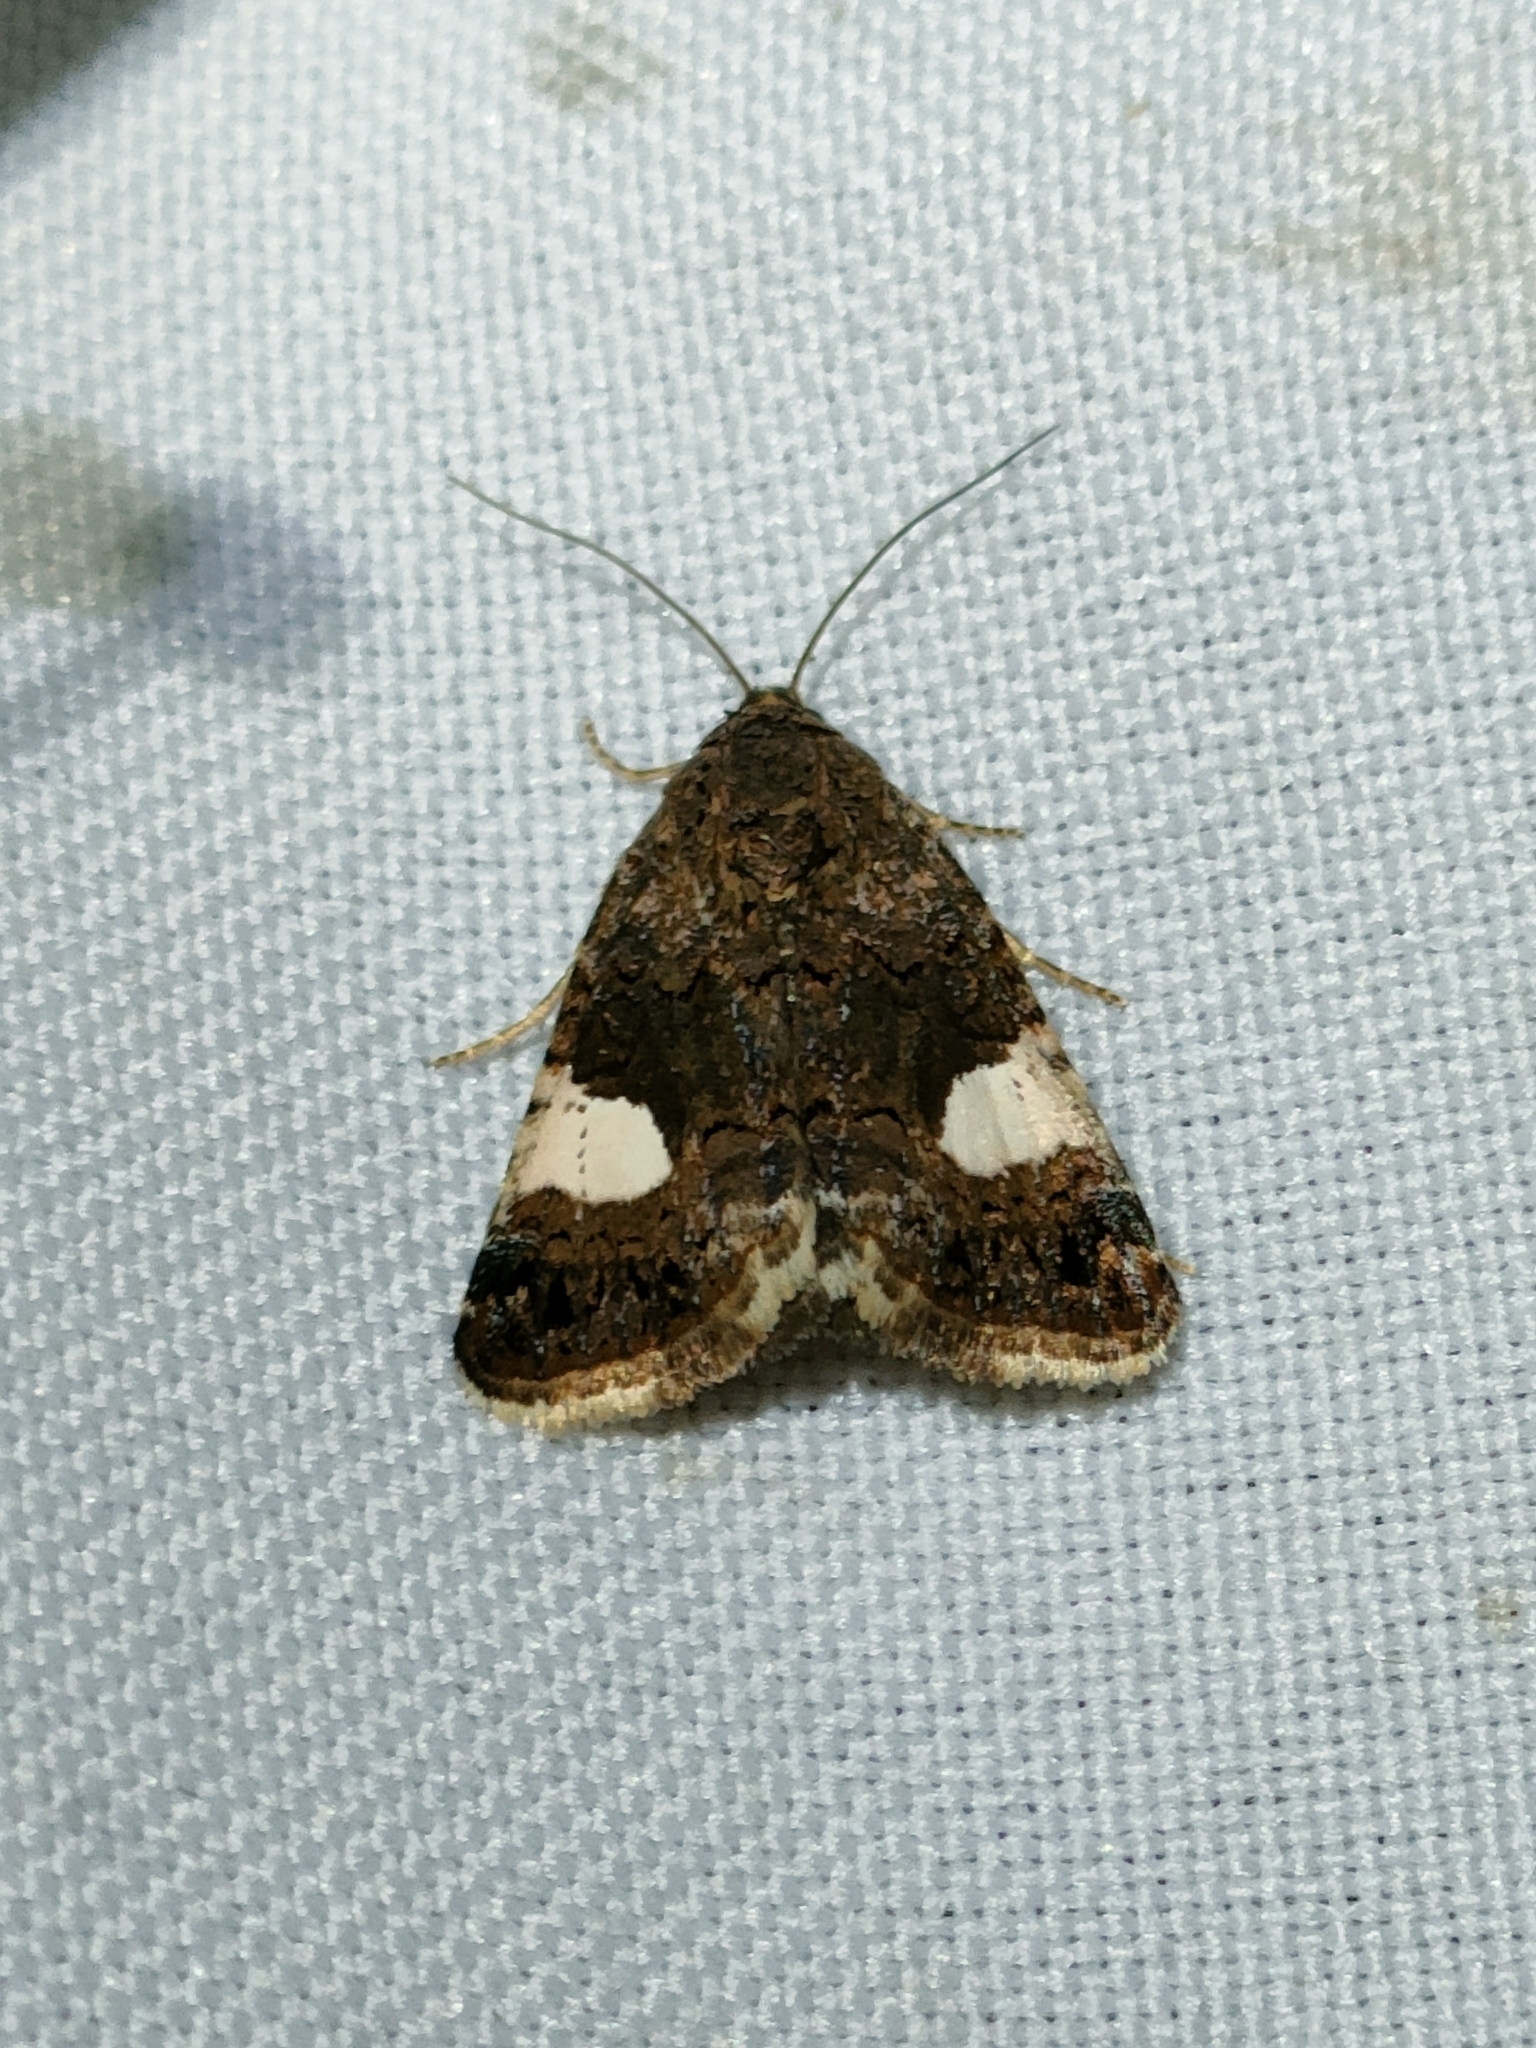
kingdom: Animalia
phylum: Arthropoda
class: Insecta
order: Lepidoptera
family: Erebidae
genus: Tyta
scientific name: Tyta luctuosa
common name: Four-spotted
